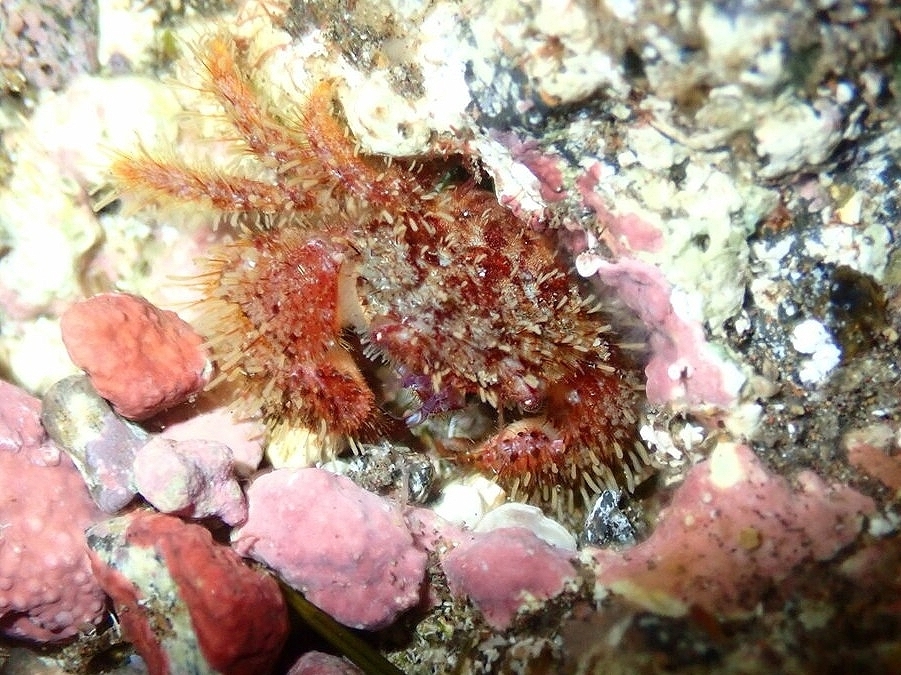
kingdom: Animalia
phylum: Arthropoda
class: Malacostraca
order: Decapoda
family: Pilumnidae
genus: Pilumnus
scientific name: Pilumnus hirtellus
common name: Hairy crab
